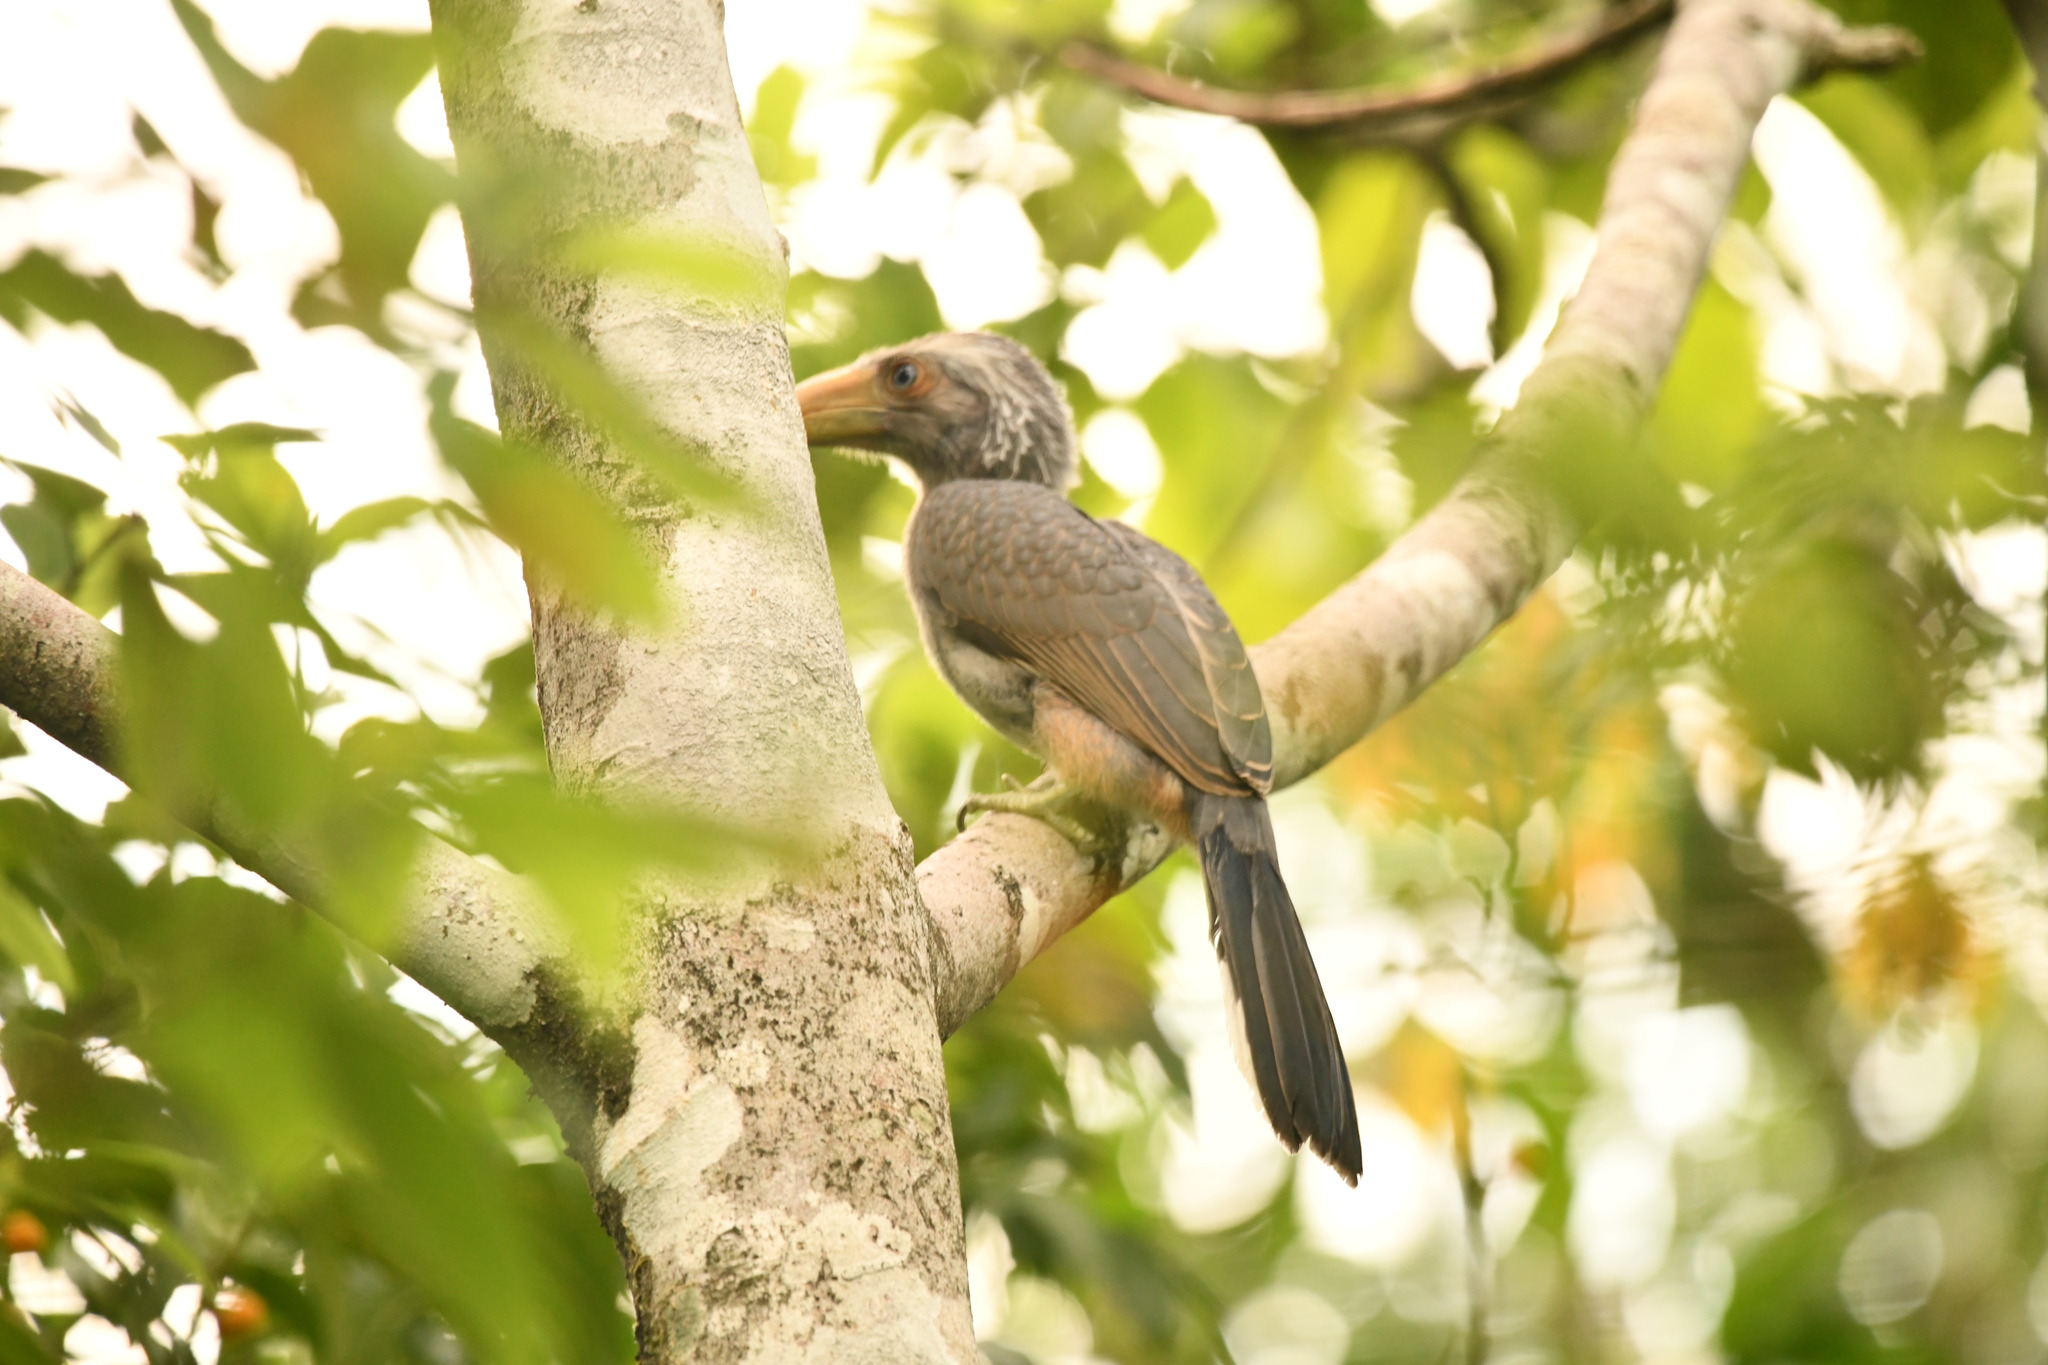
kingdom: Animalia
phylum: Chordata
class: Aves
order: Bucerotiformes
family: Bucerotidae
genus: Ocyceros
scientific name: Ocyceros griseus
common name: Malabar grey hornbill
